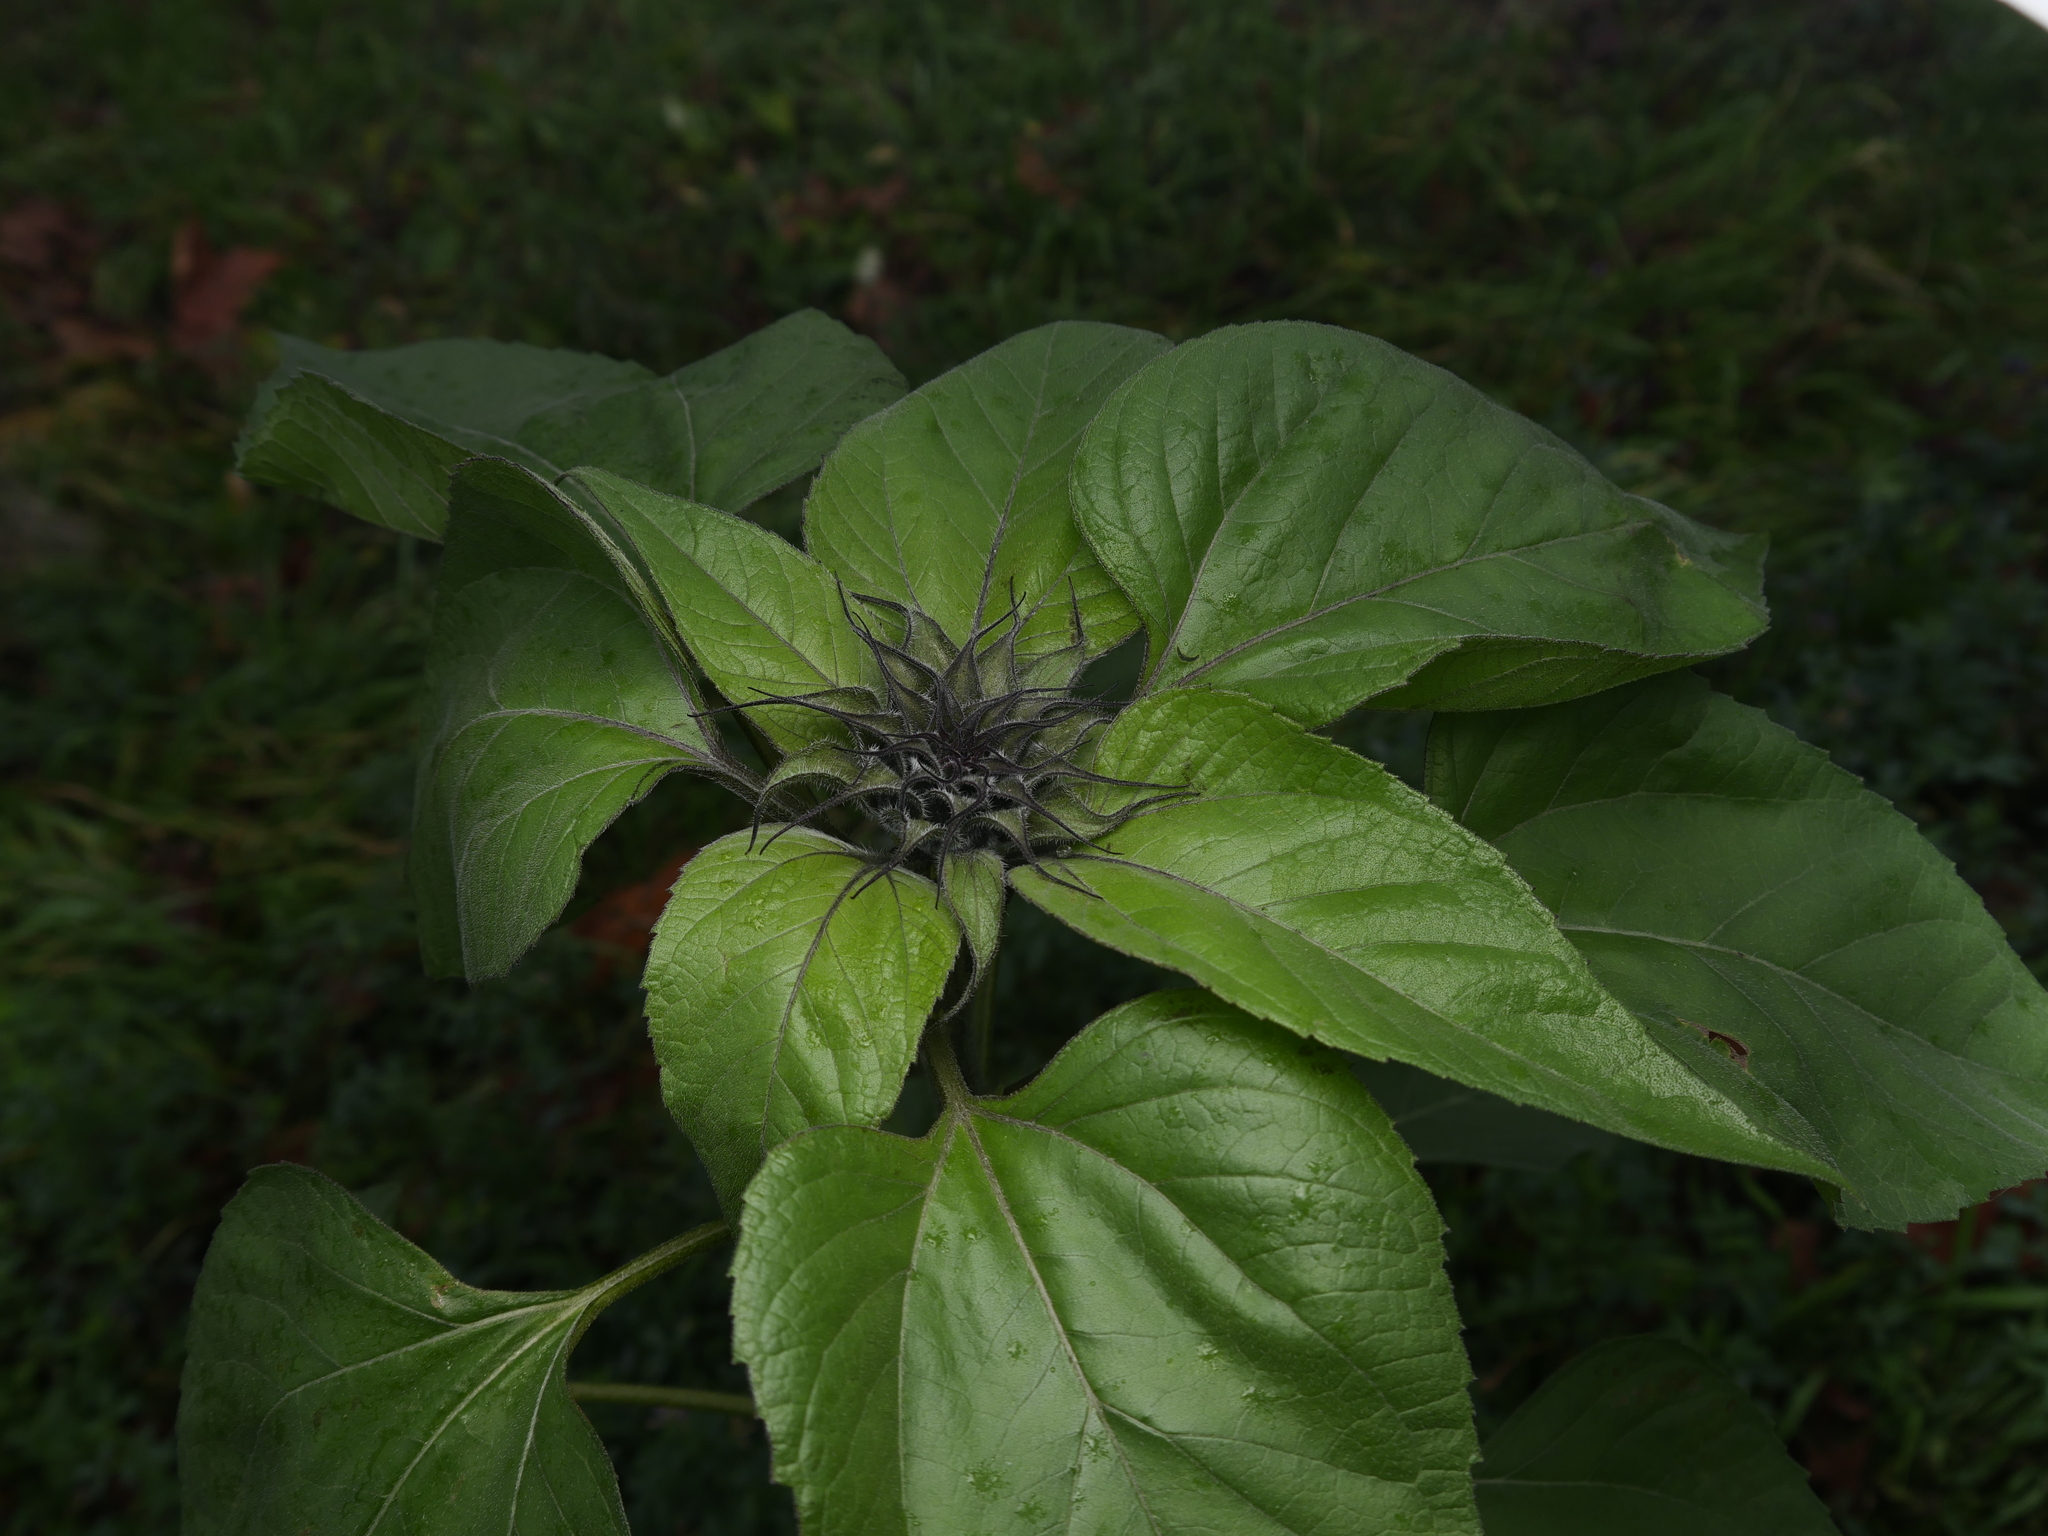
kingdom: Plantae
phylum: Tracheophyta
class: Magnoliopsida
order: Asterales
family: Asteraceae
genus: Helianthus
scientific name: Helianthus annuus
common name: Sunflower
